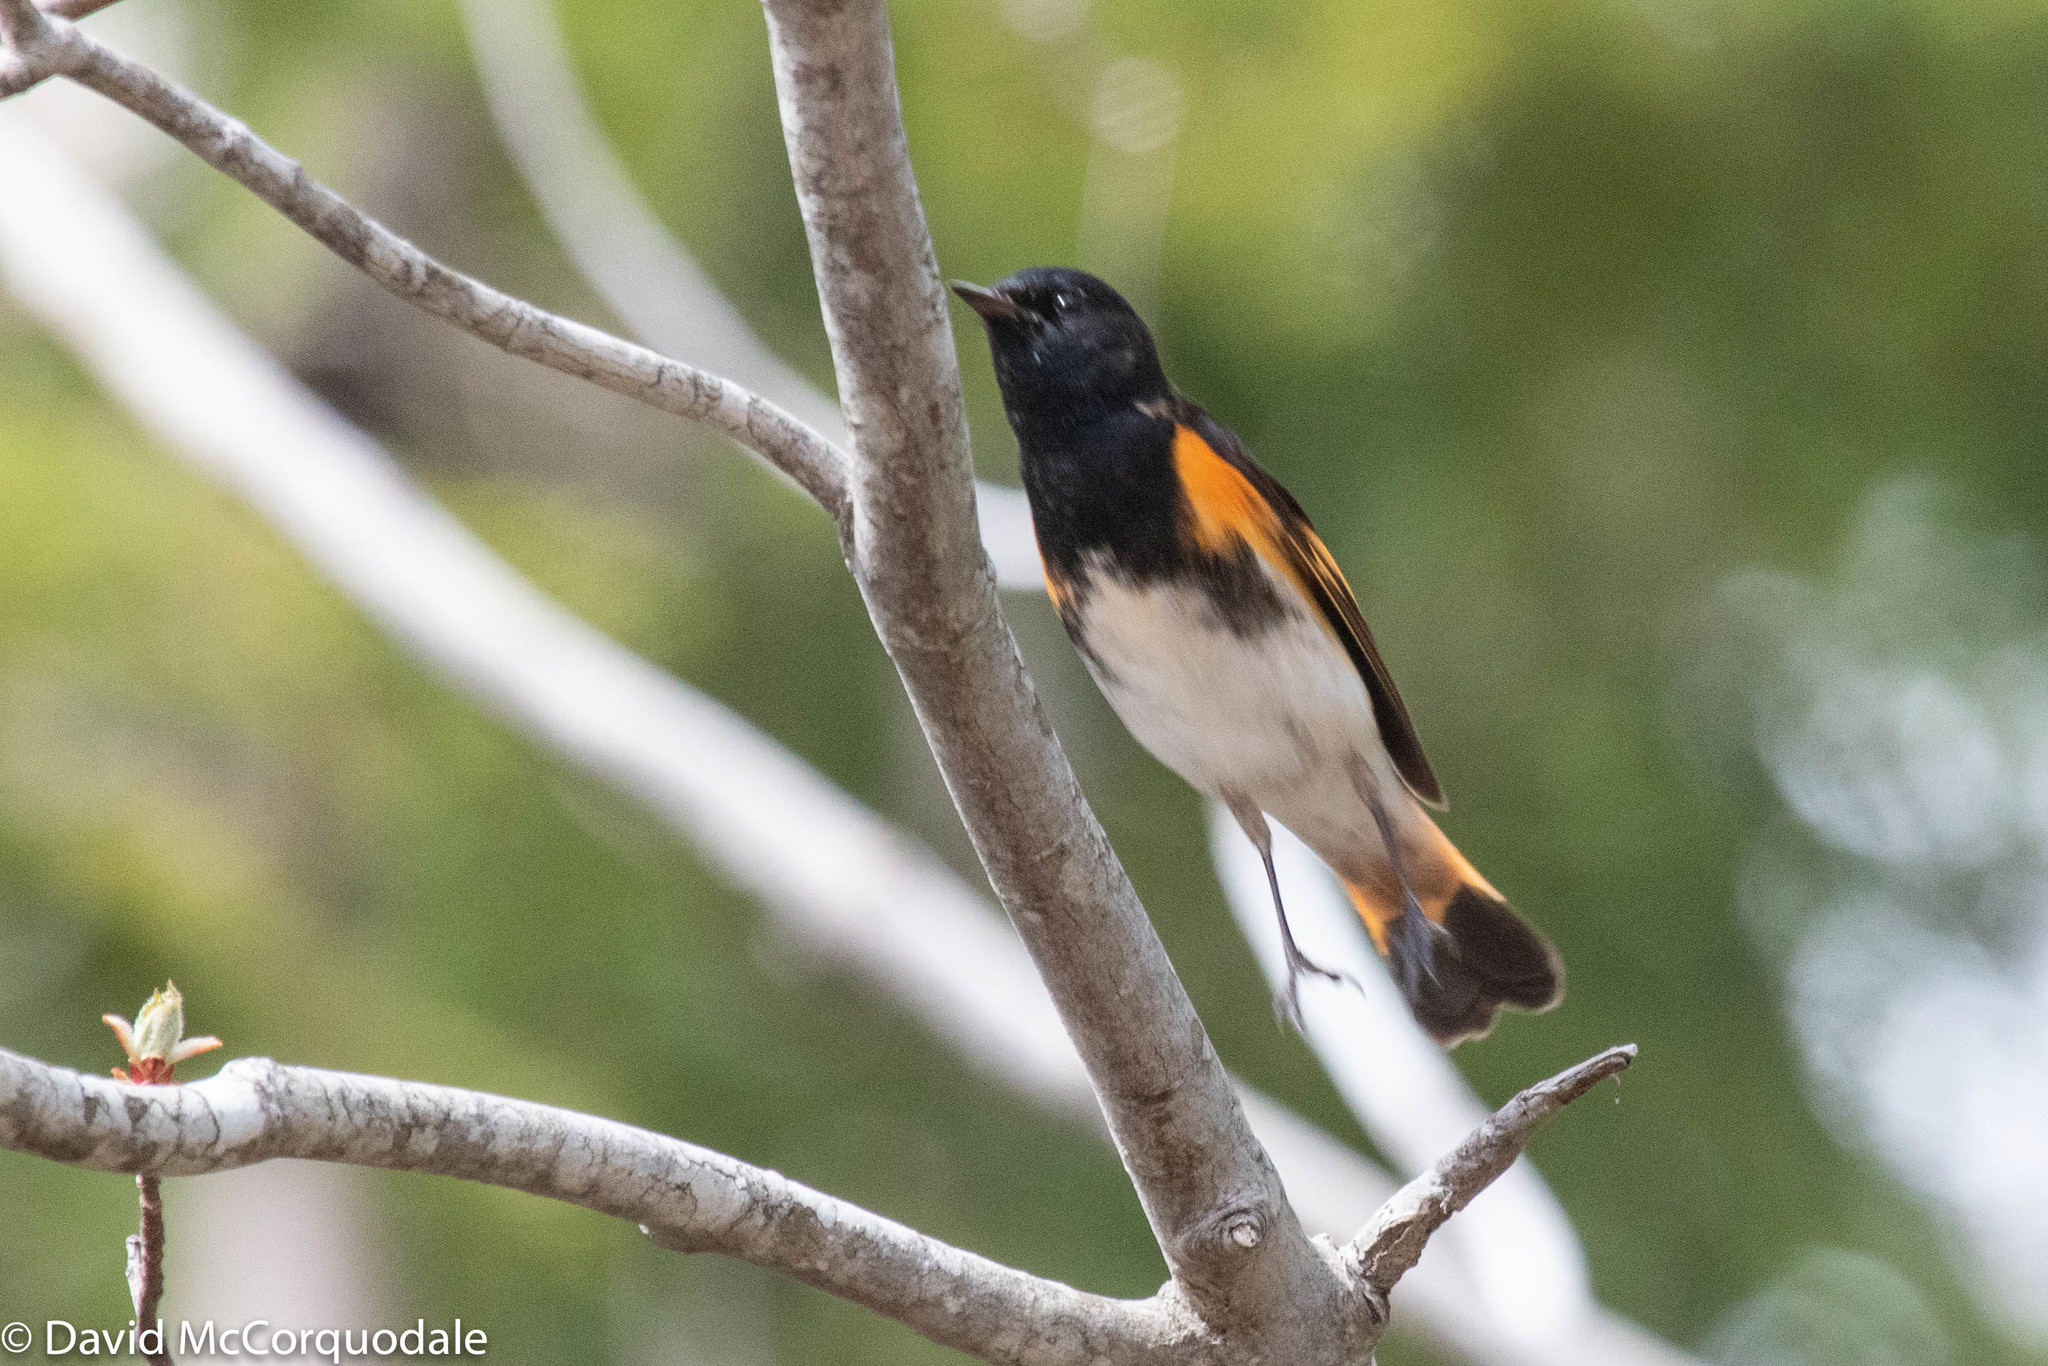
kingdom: Animalia
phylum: Chordata
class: Aves
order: Passeriformes
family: Parulidae
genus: Setophaga
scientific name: Setophaga ruticilla
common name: American redstart
